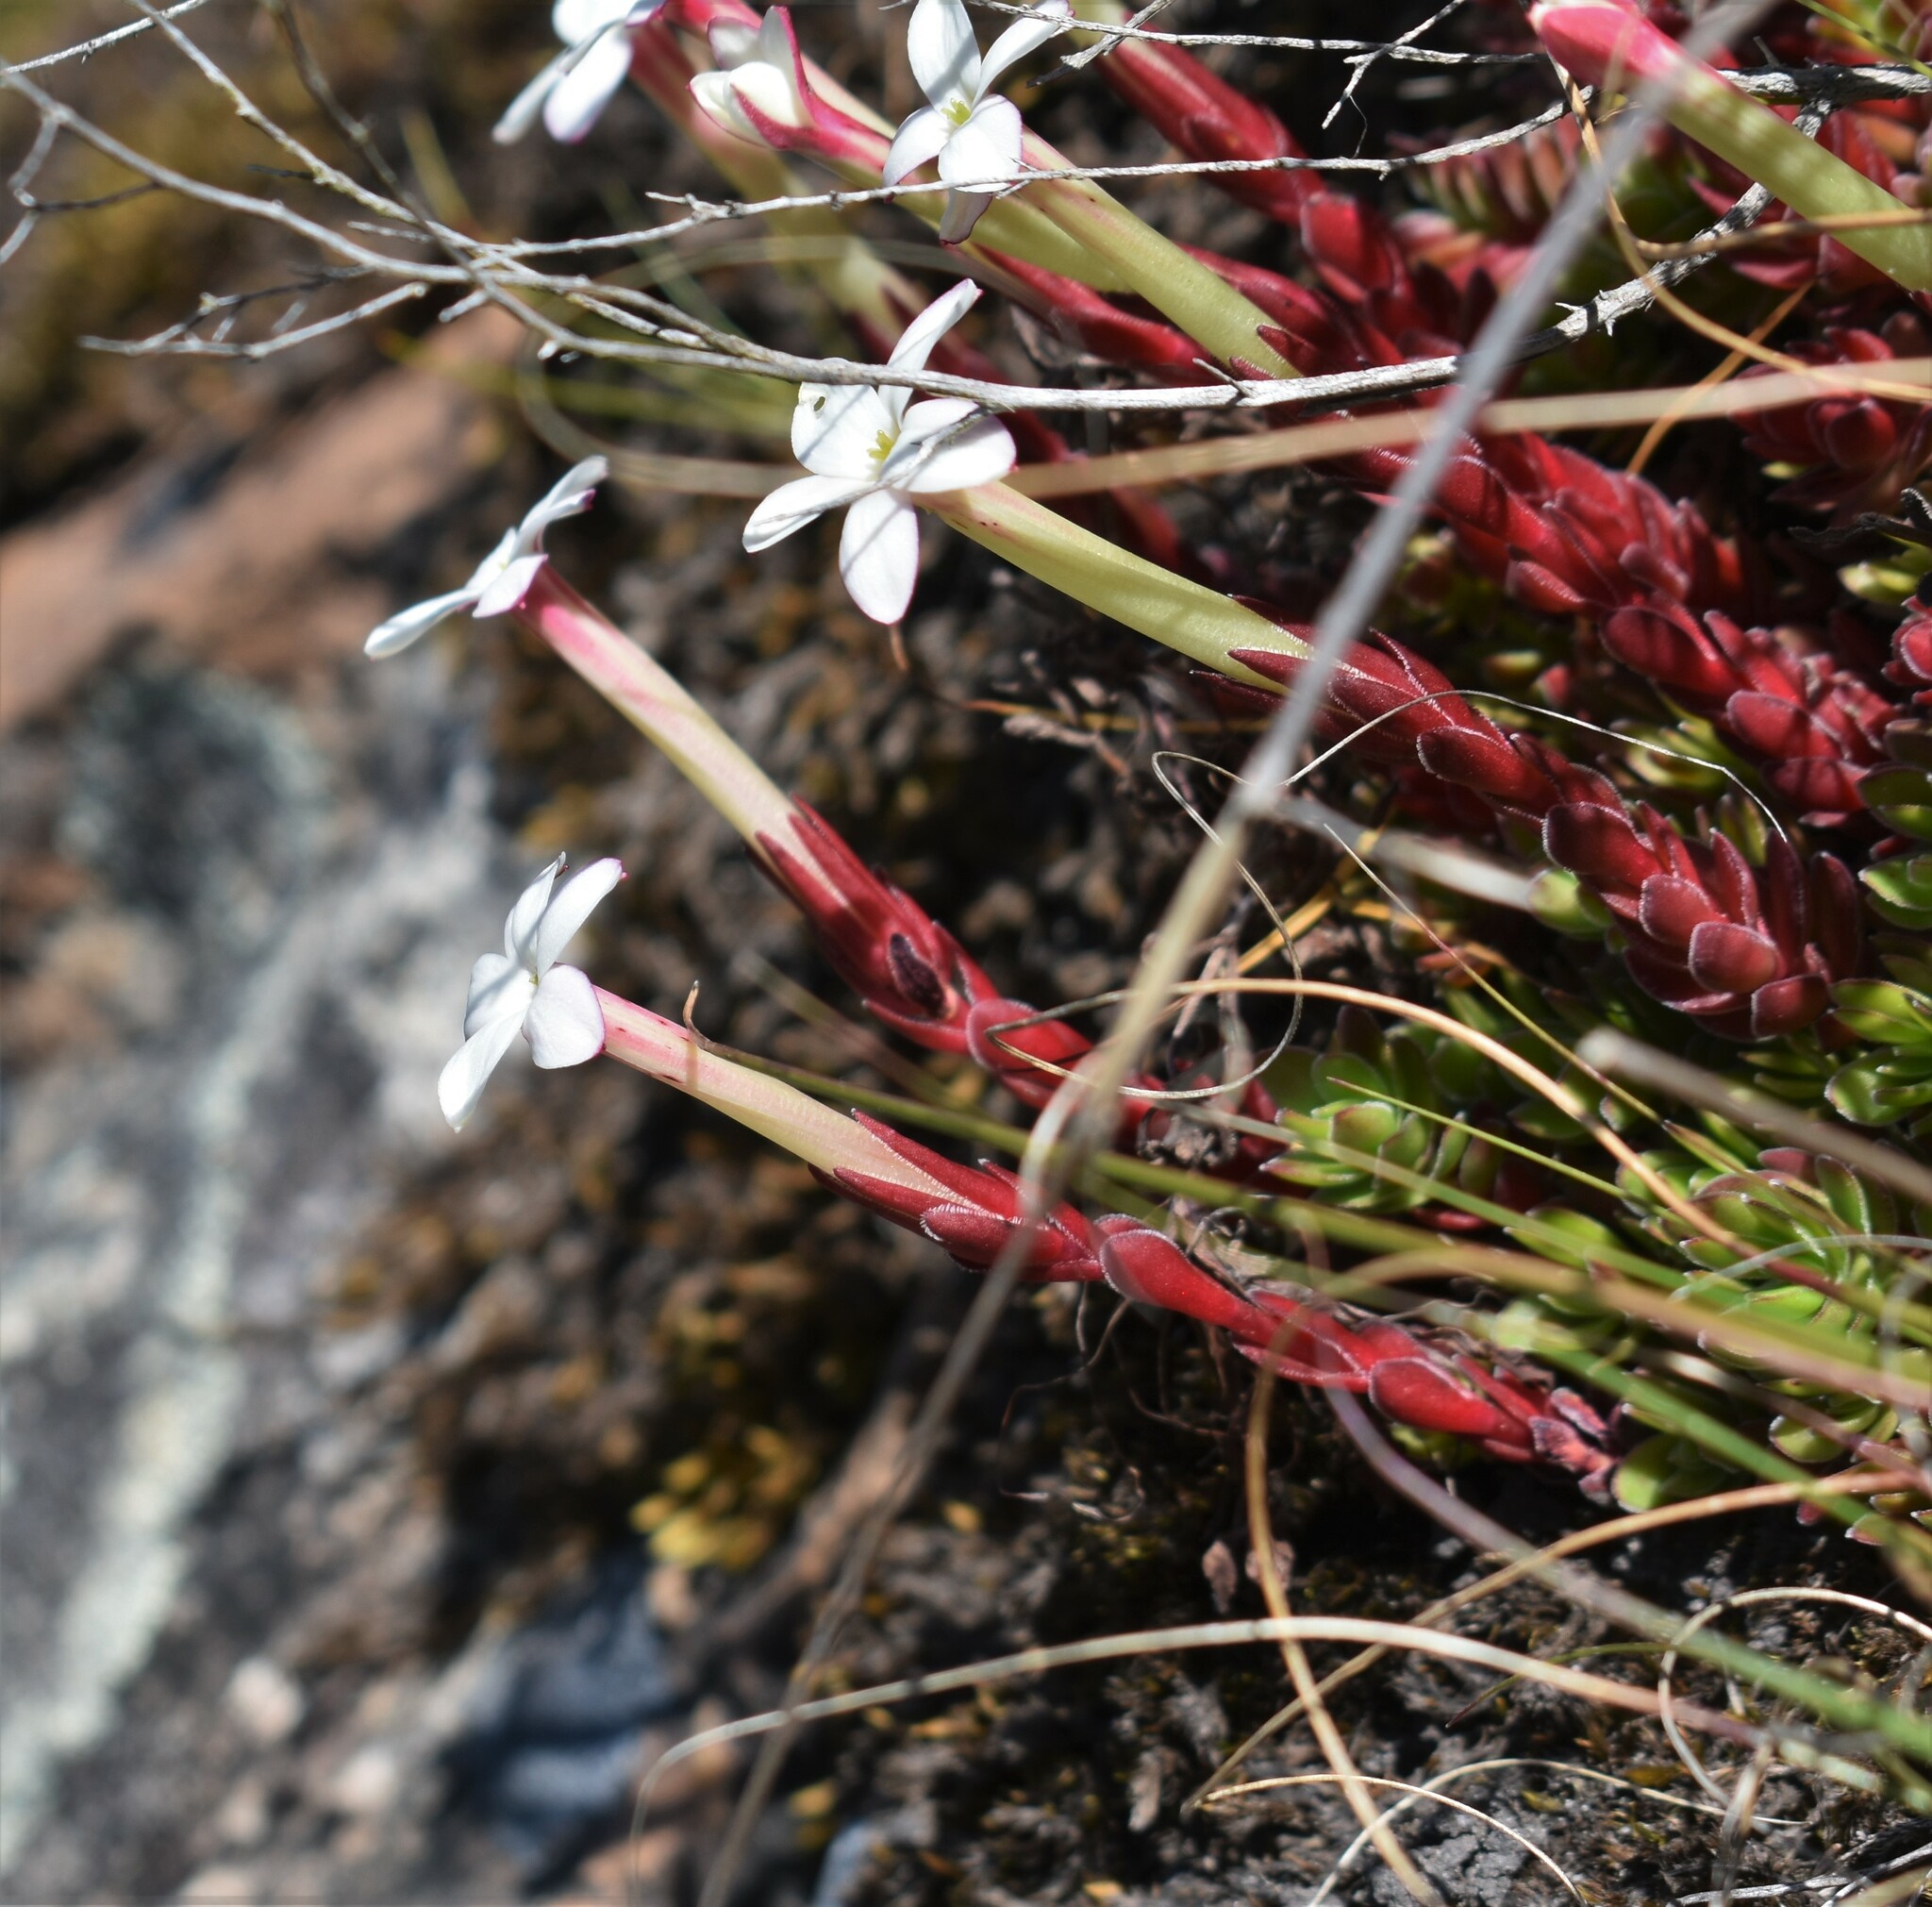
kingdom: Plantae
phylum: Tracheophyta
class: Magnoliopsida
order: Saxifragales
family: Crassulaceae
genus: Crassula
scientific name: Crassula obtusa
